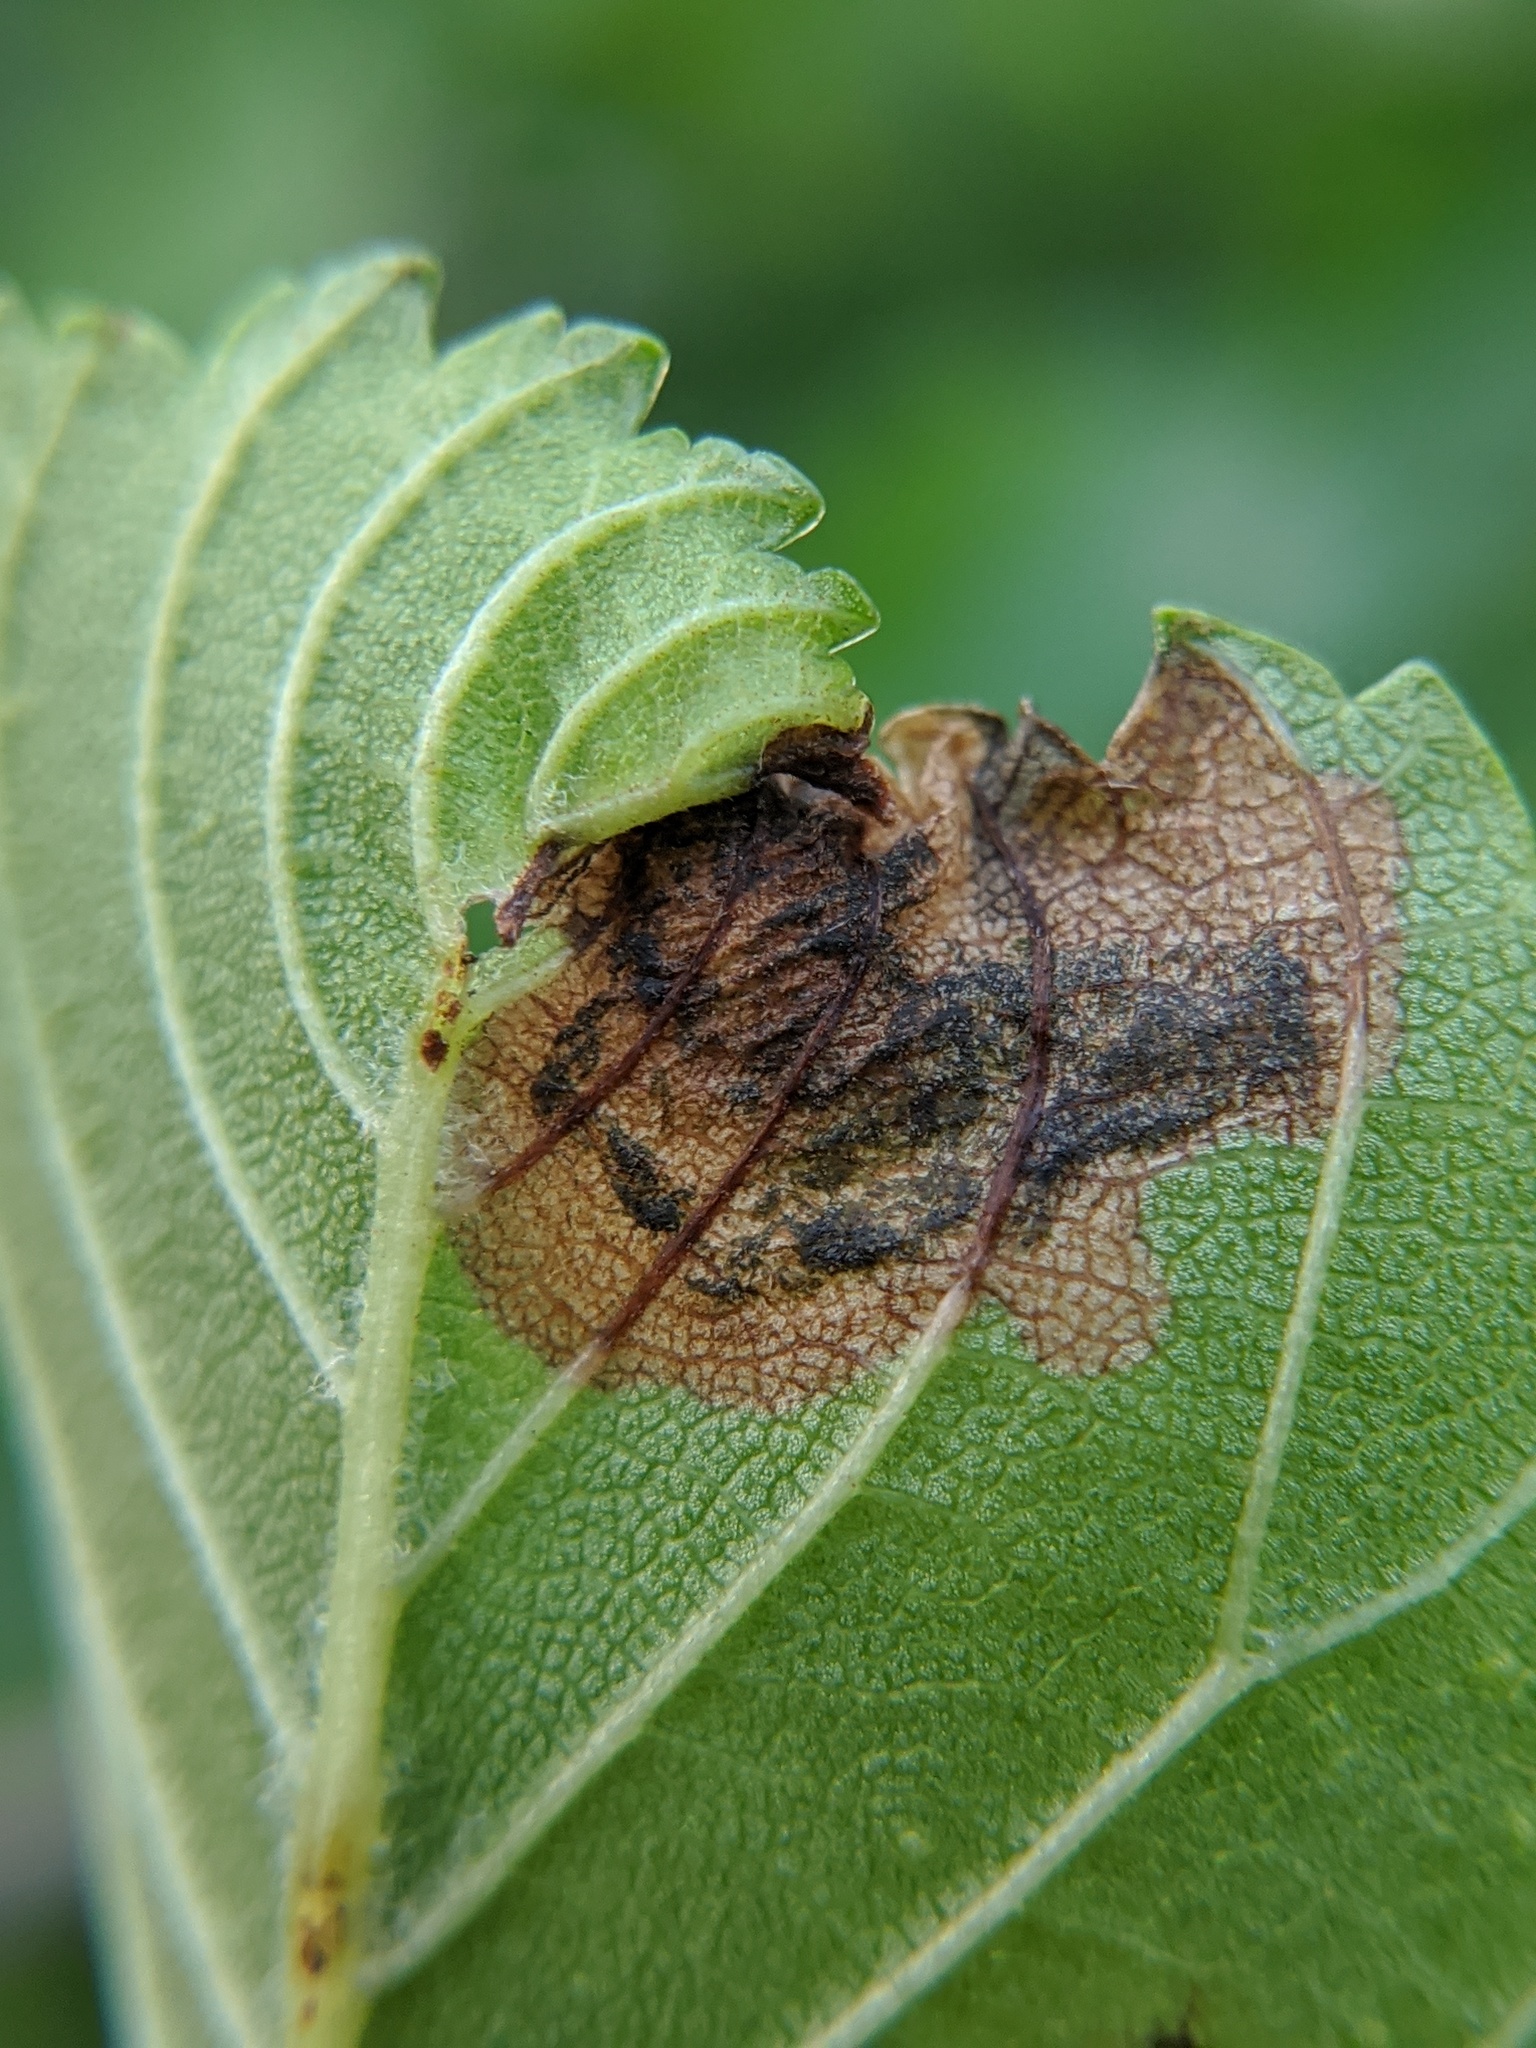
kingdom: Animalia
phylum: Arthropoda
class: Insecta
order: Coleoptera
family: Curculionidae
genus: Orchestes
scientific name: Orchestes steppensis
